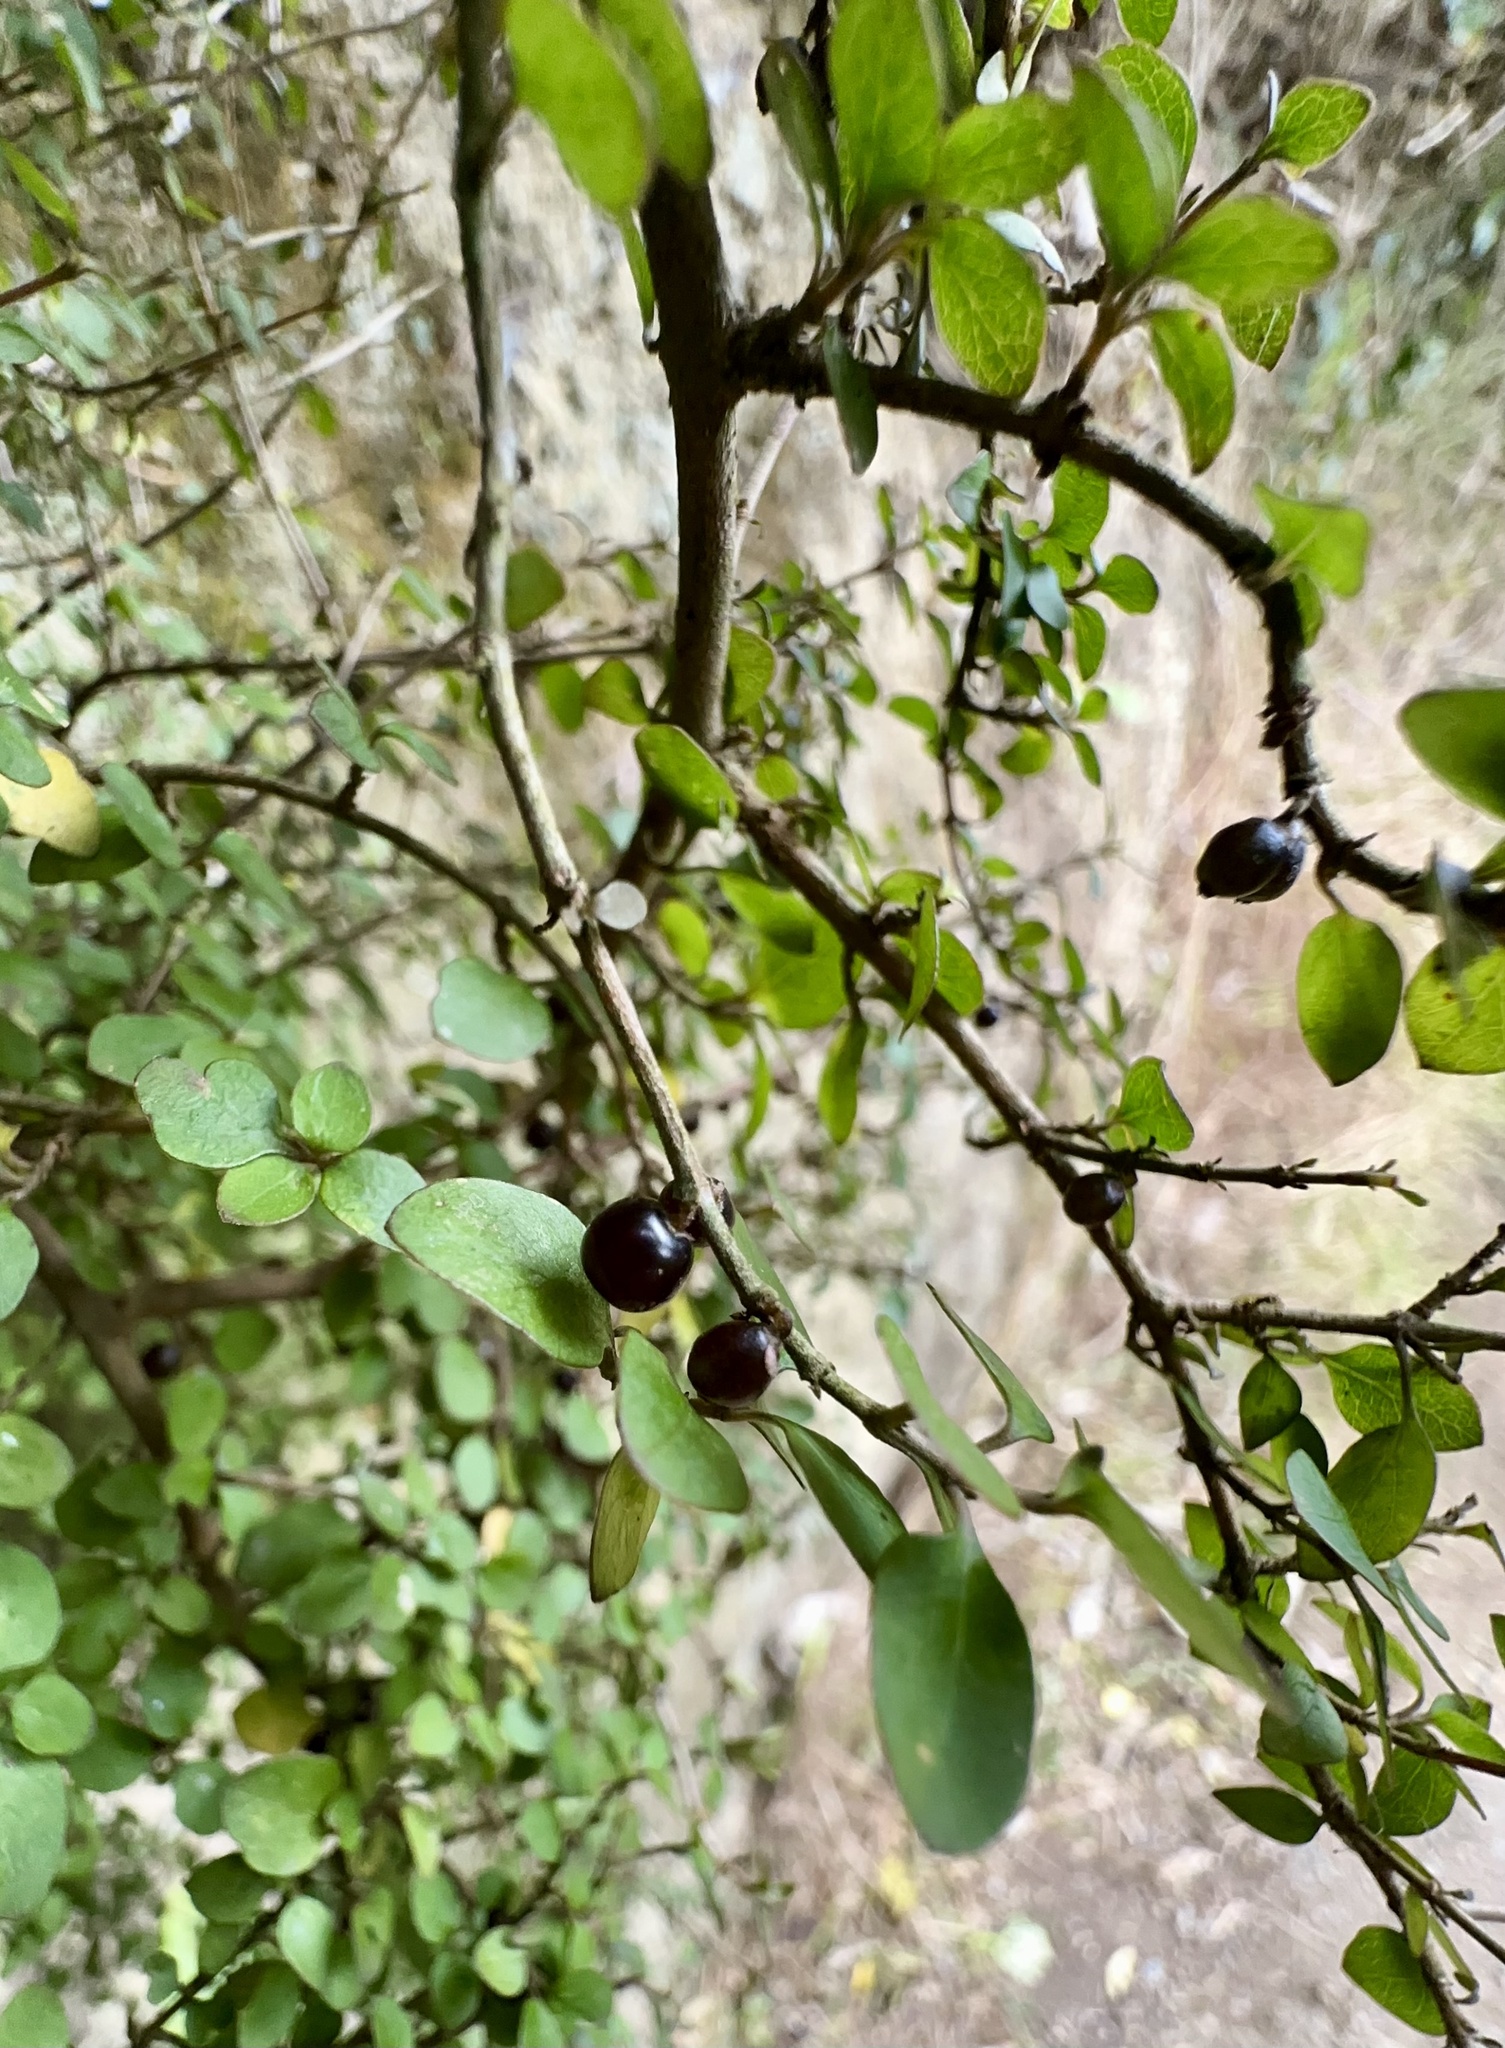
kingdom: Plantae
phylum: Tracheophyta
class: Magnoliopsida
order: Gentianales
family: Rubiaceae
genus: Coprosma
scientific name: Coprosma rhamnoides
